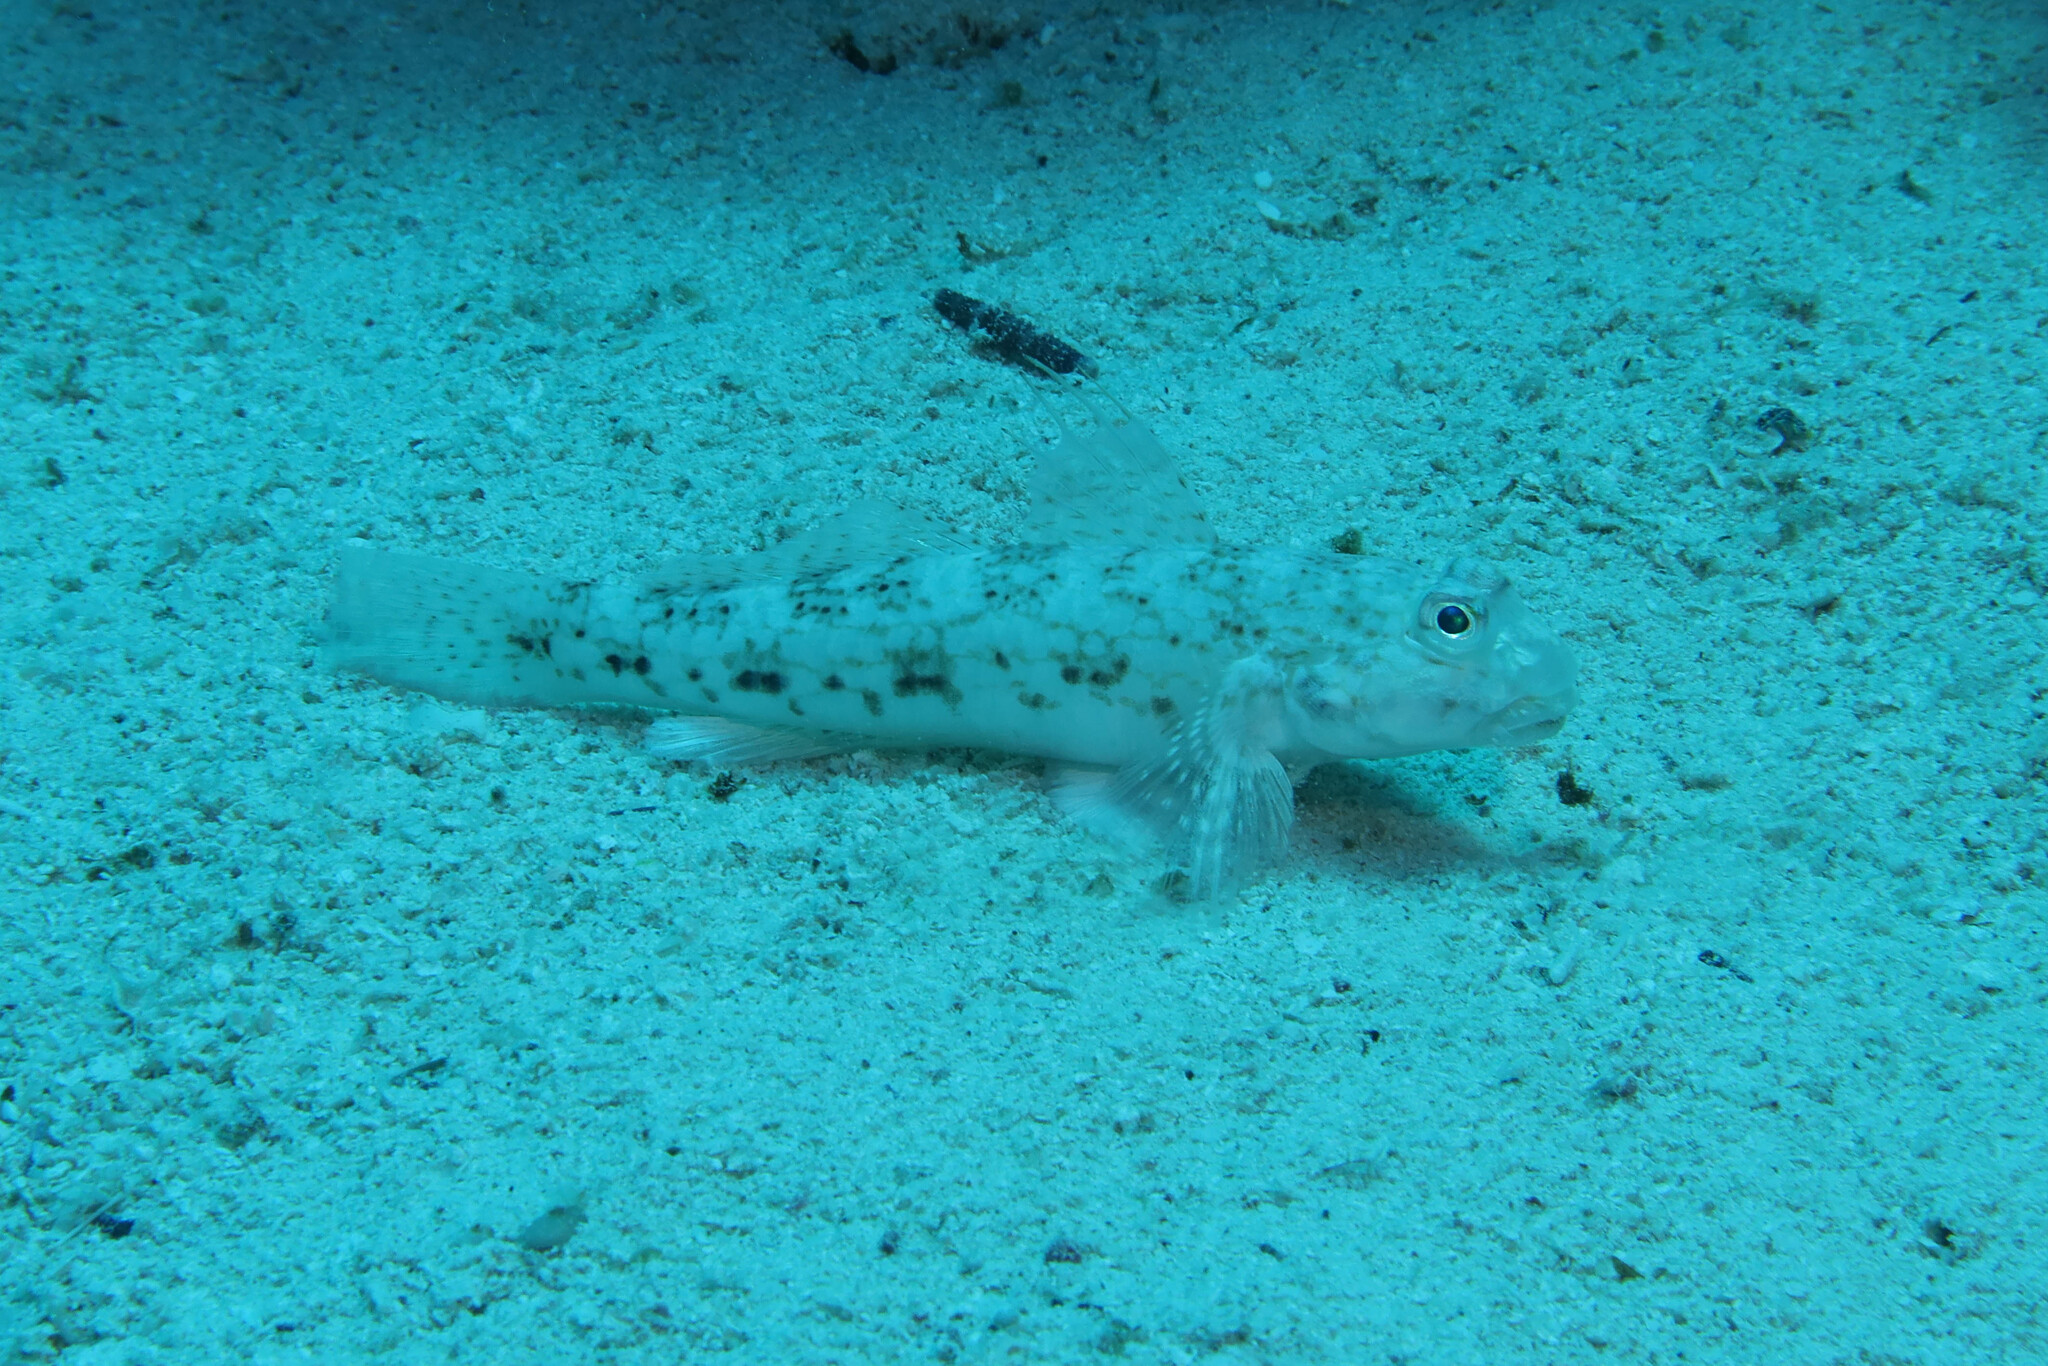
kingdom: Animalia
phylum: Chordata
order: Perciformes
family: Gobiidae
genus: Istigobius
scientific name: Istigobius decoratus
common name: Decorated goby
